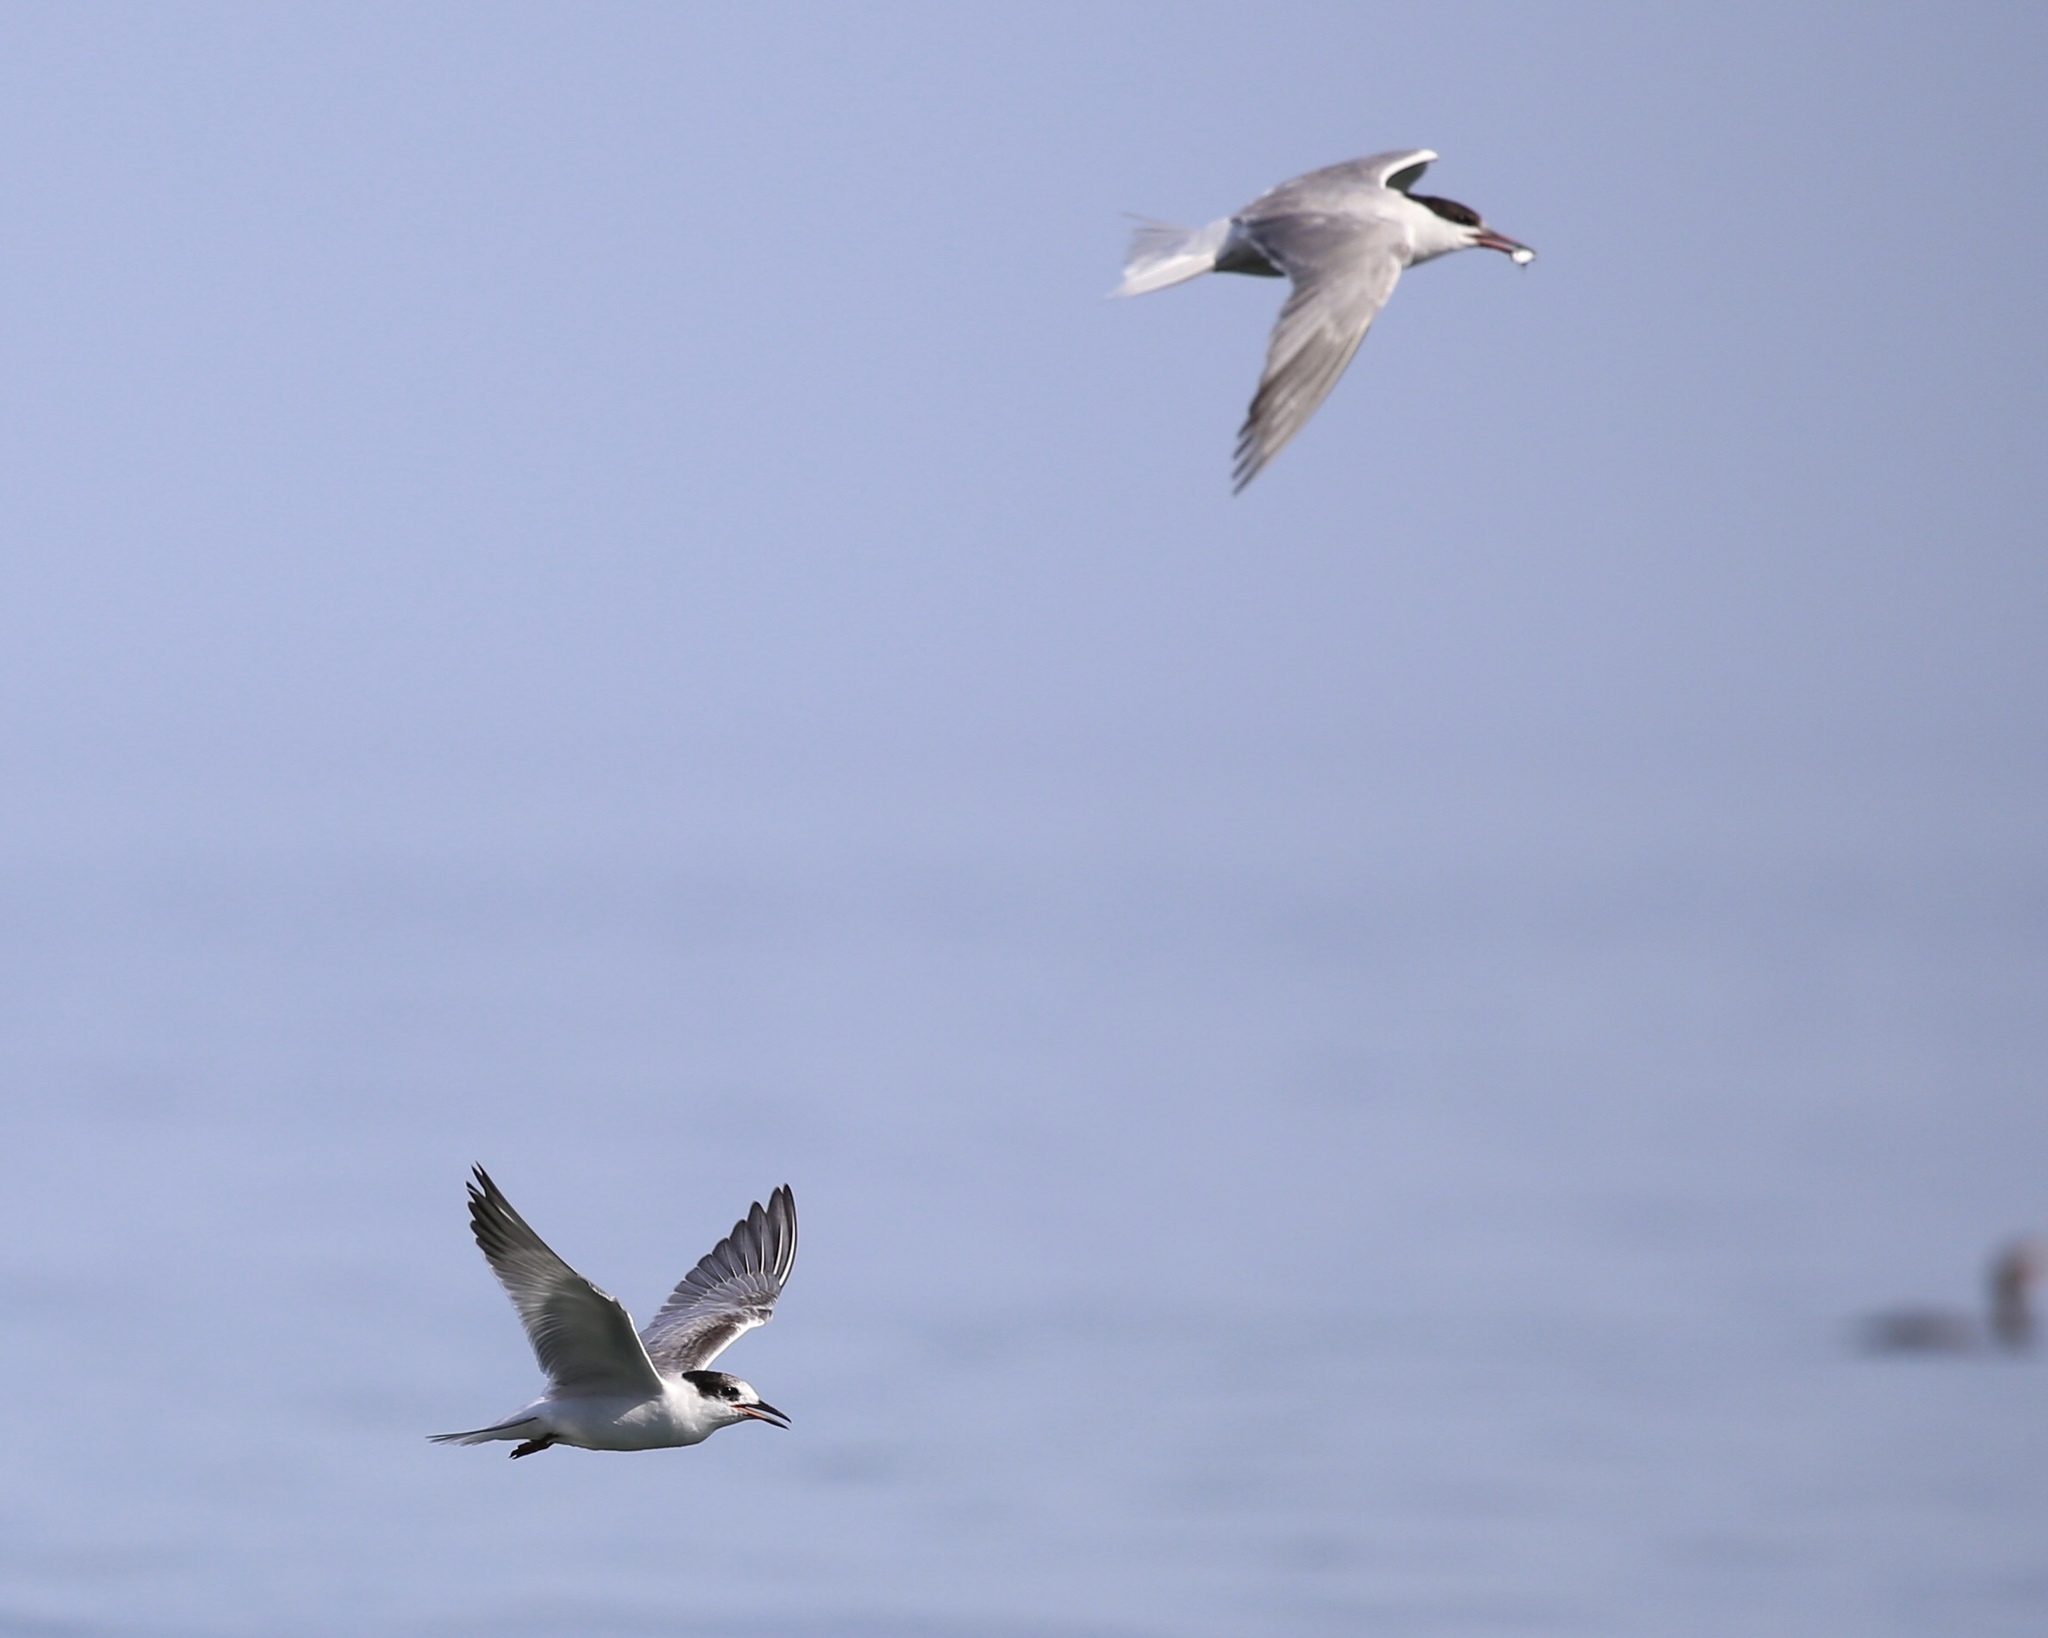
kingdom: Animalia
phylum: Chordata
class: Aves
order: Charadriiformes
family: Laridae
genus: Sterna
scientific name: Sterna hirundo
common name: Common tern
